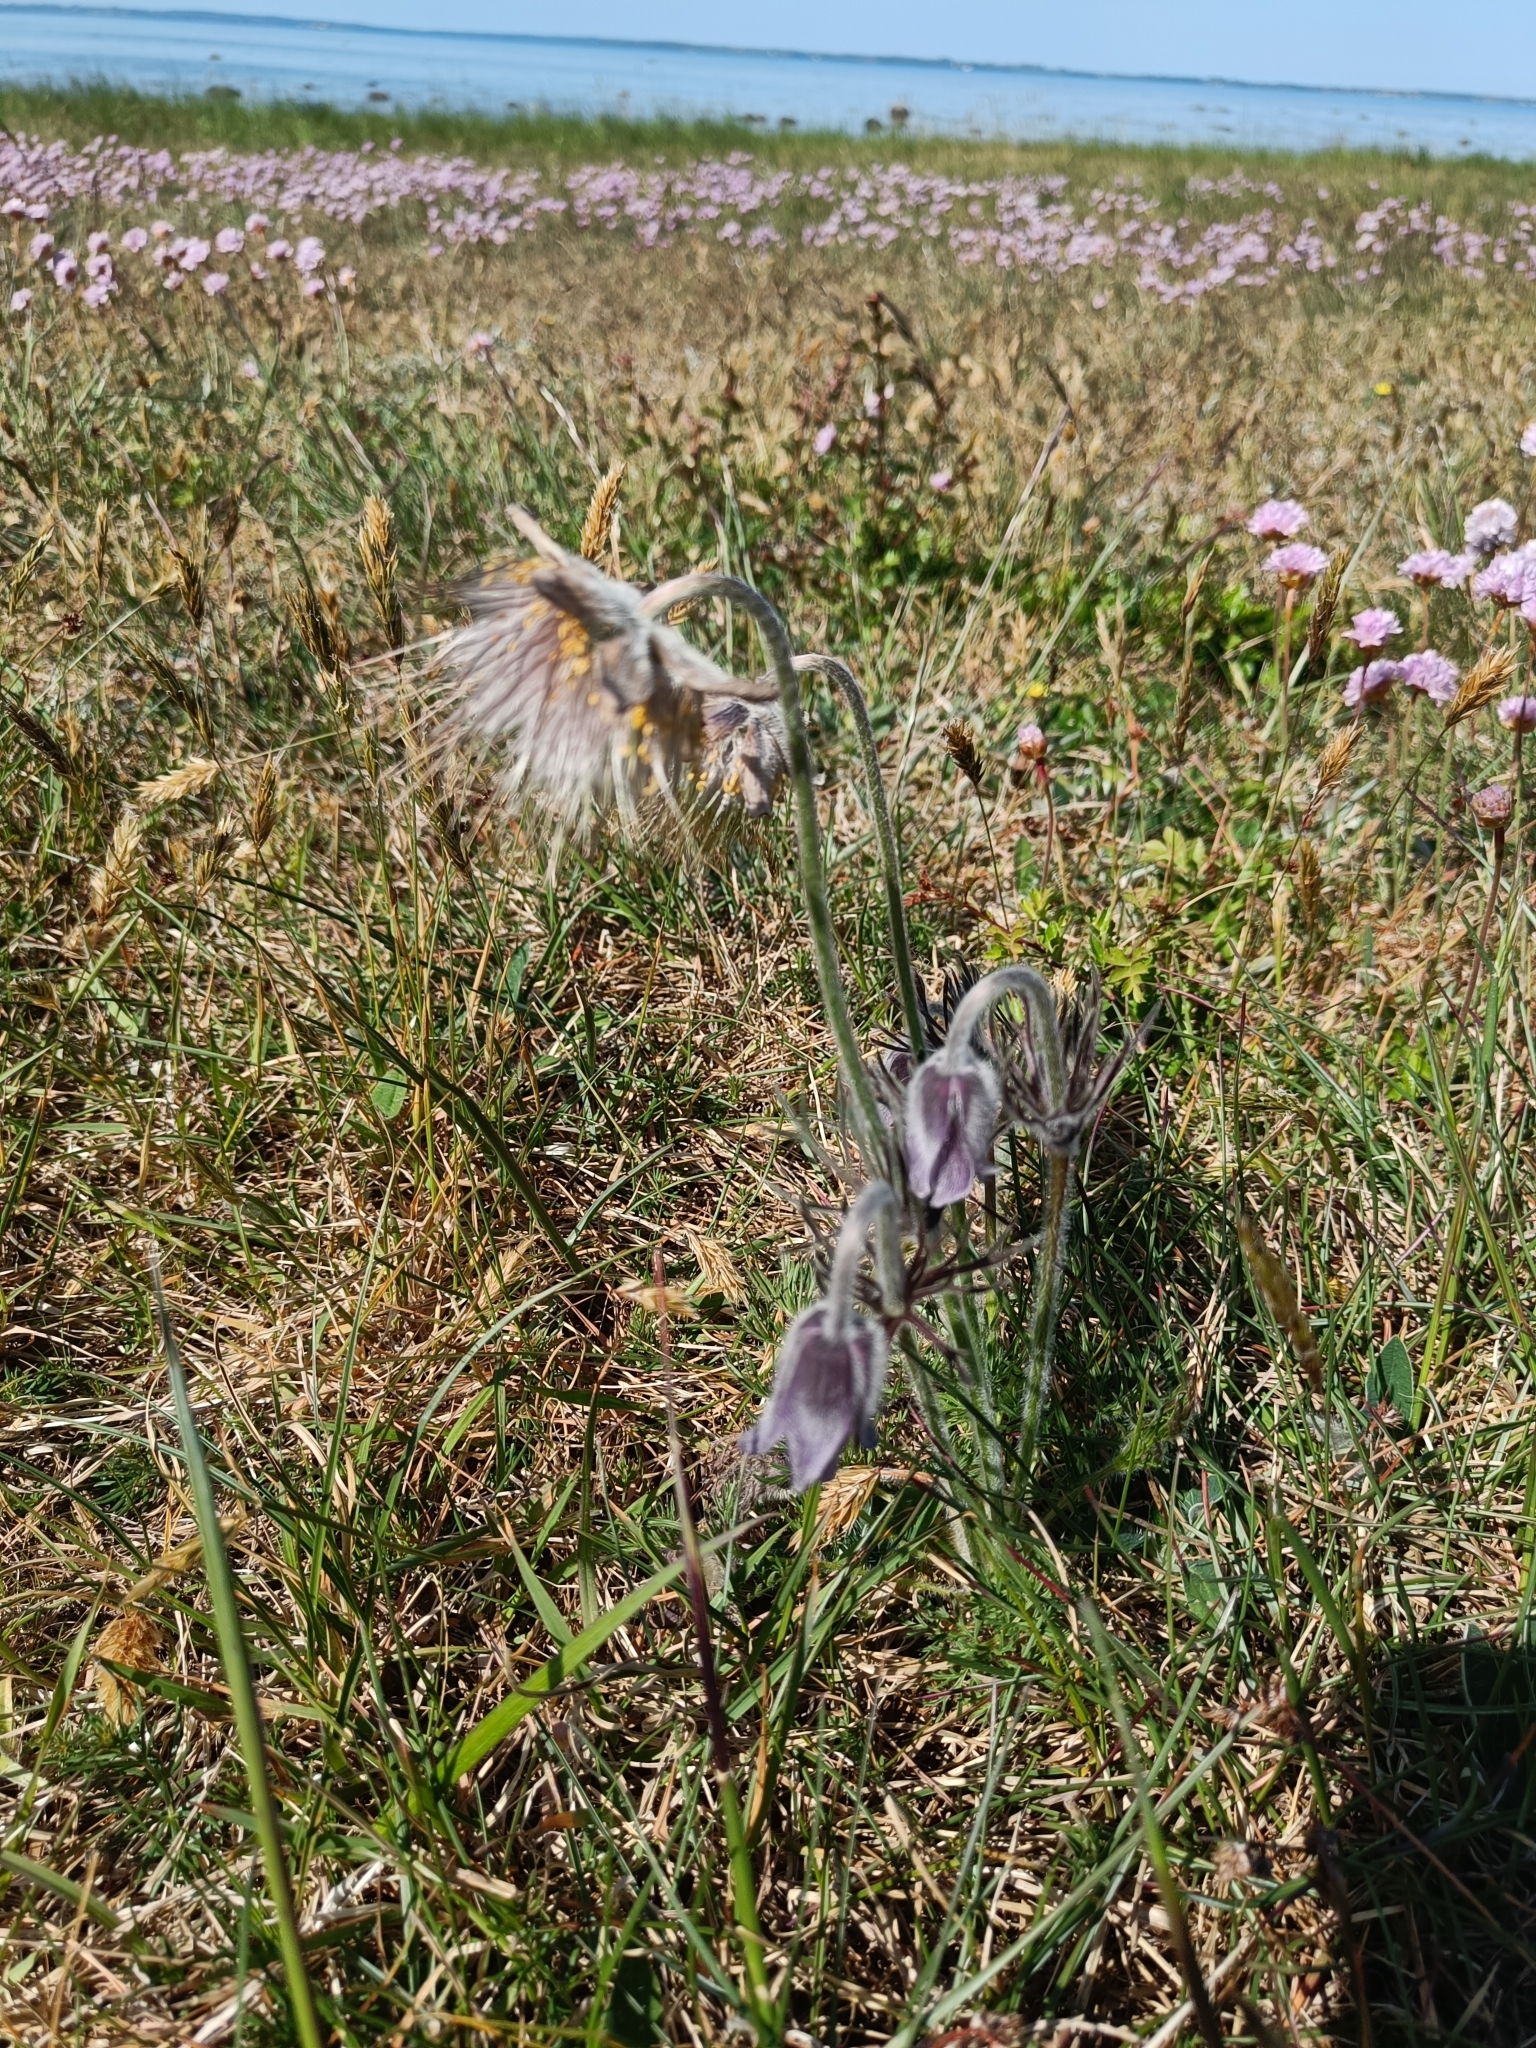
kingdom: Plantae
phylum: Tracheophyta
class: Magnoliopsida
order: Ranunculales
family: Ranunculaceae
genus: Pulsatilla
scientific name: Pulsatilla pratensis
